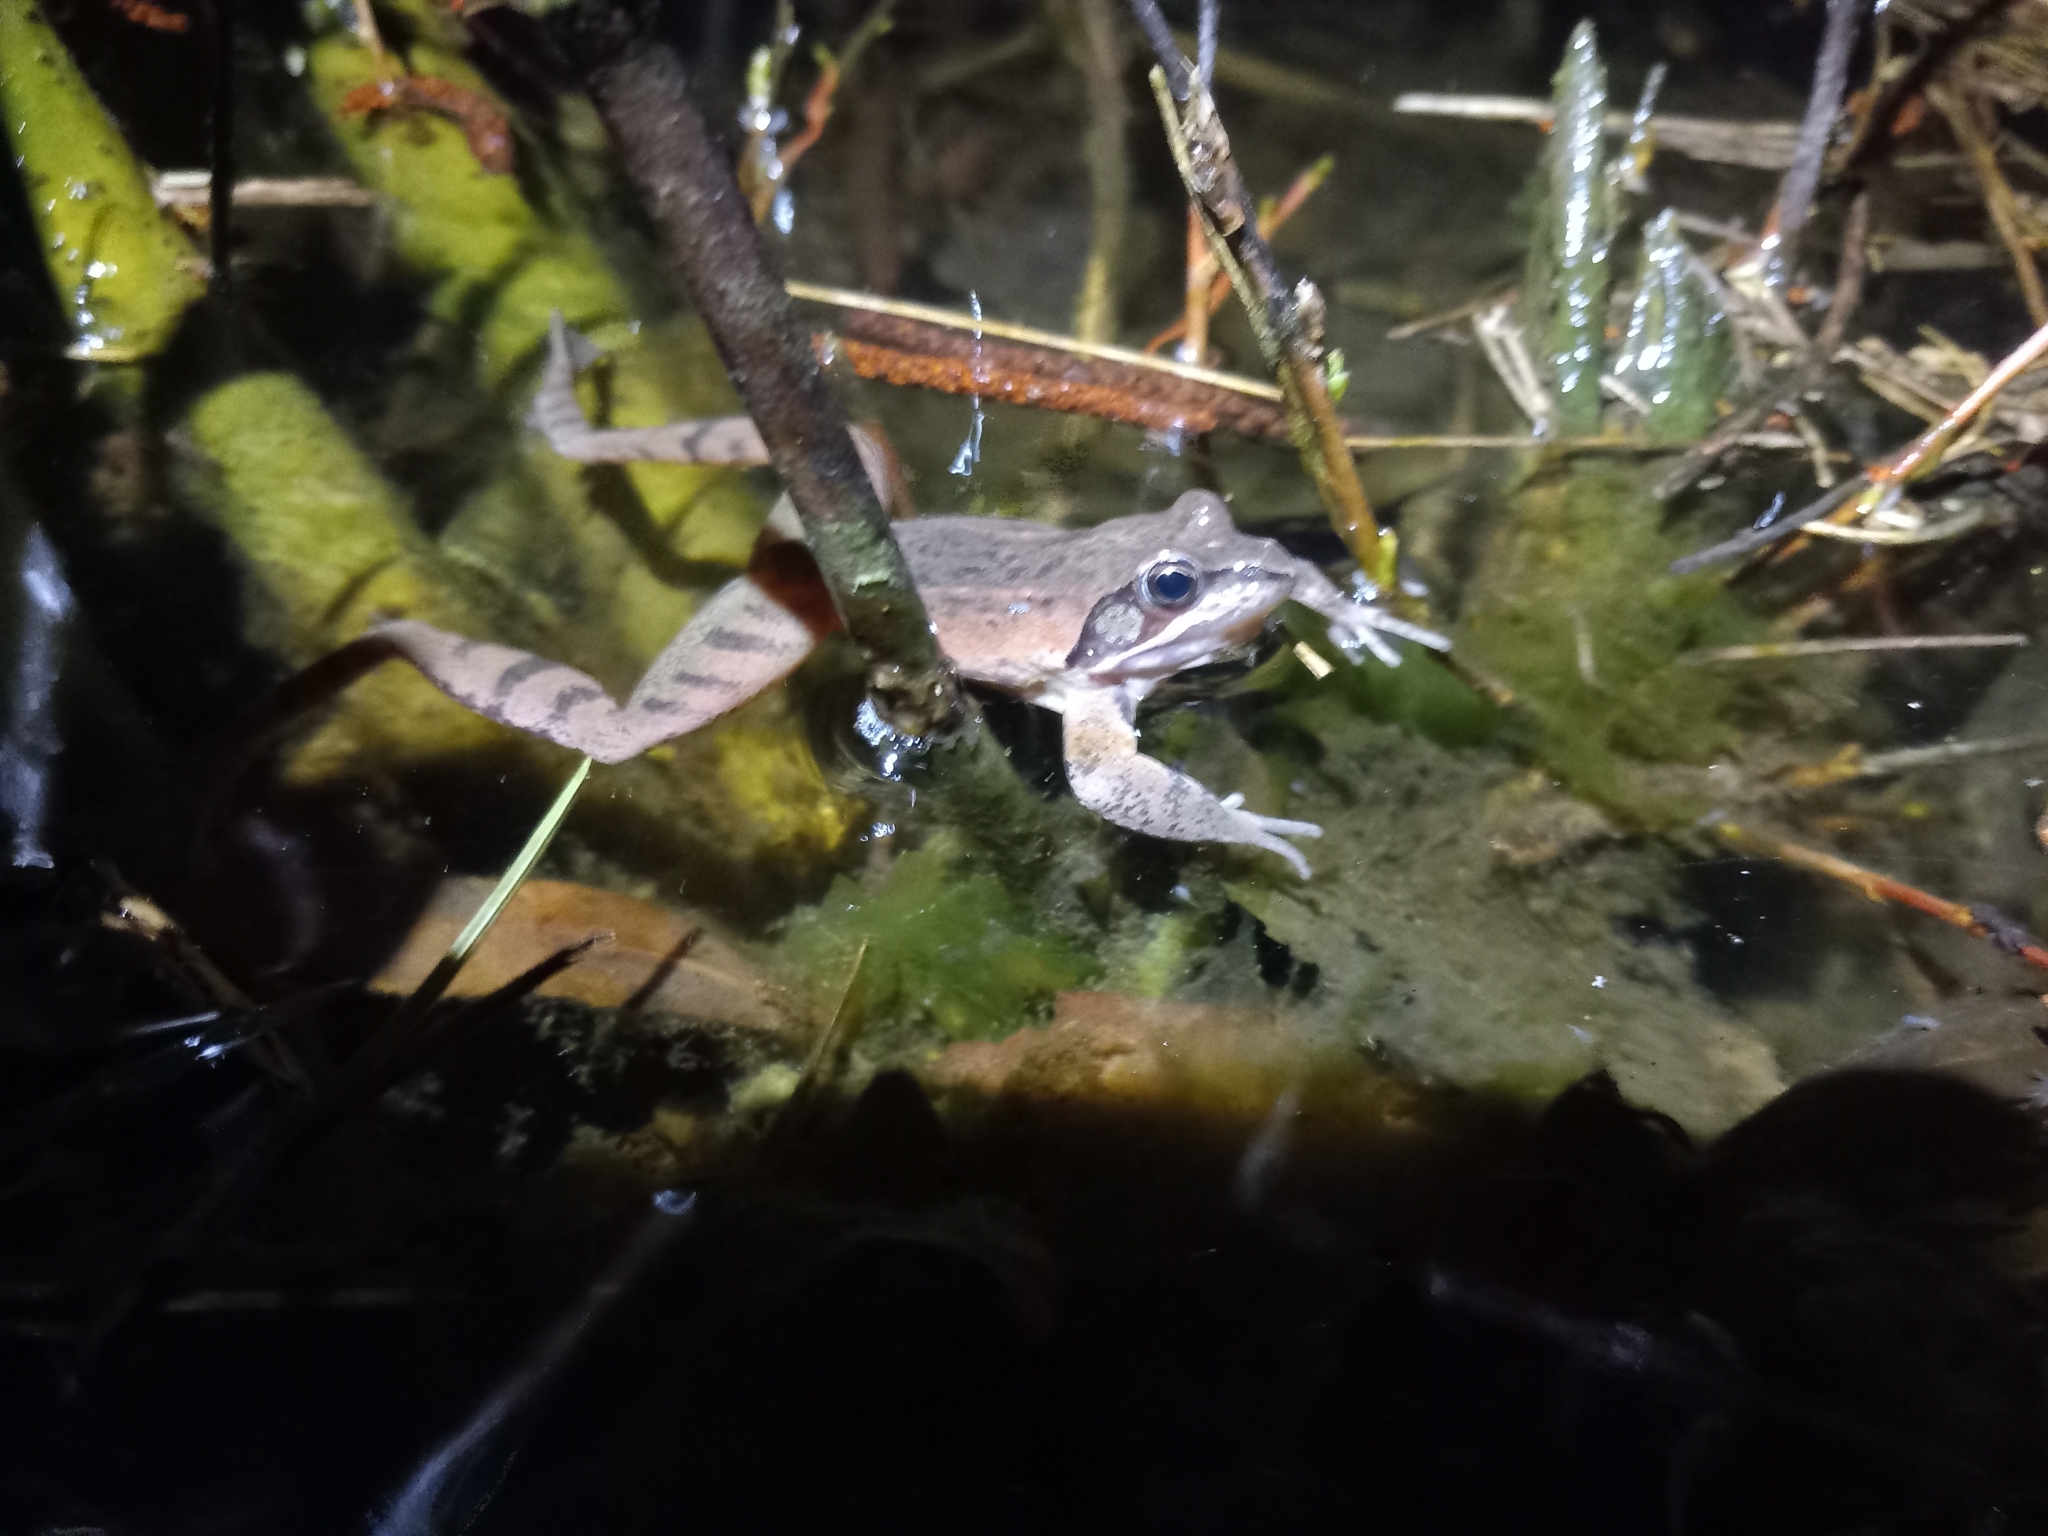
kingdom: Animalia
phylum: Chordata
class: Amphibia
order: Anura
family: Ranidae
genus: Rana
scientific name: Rana dalmatina
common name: Agile frog
